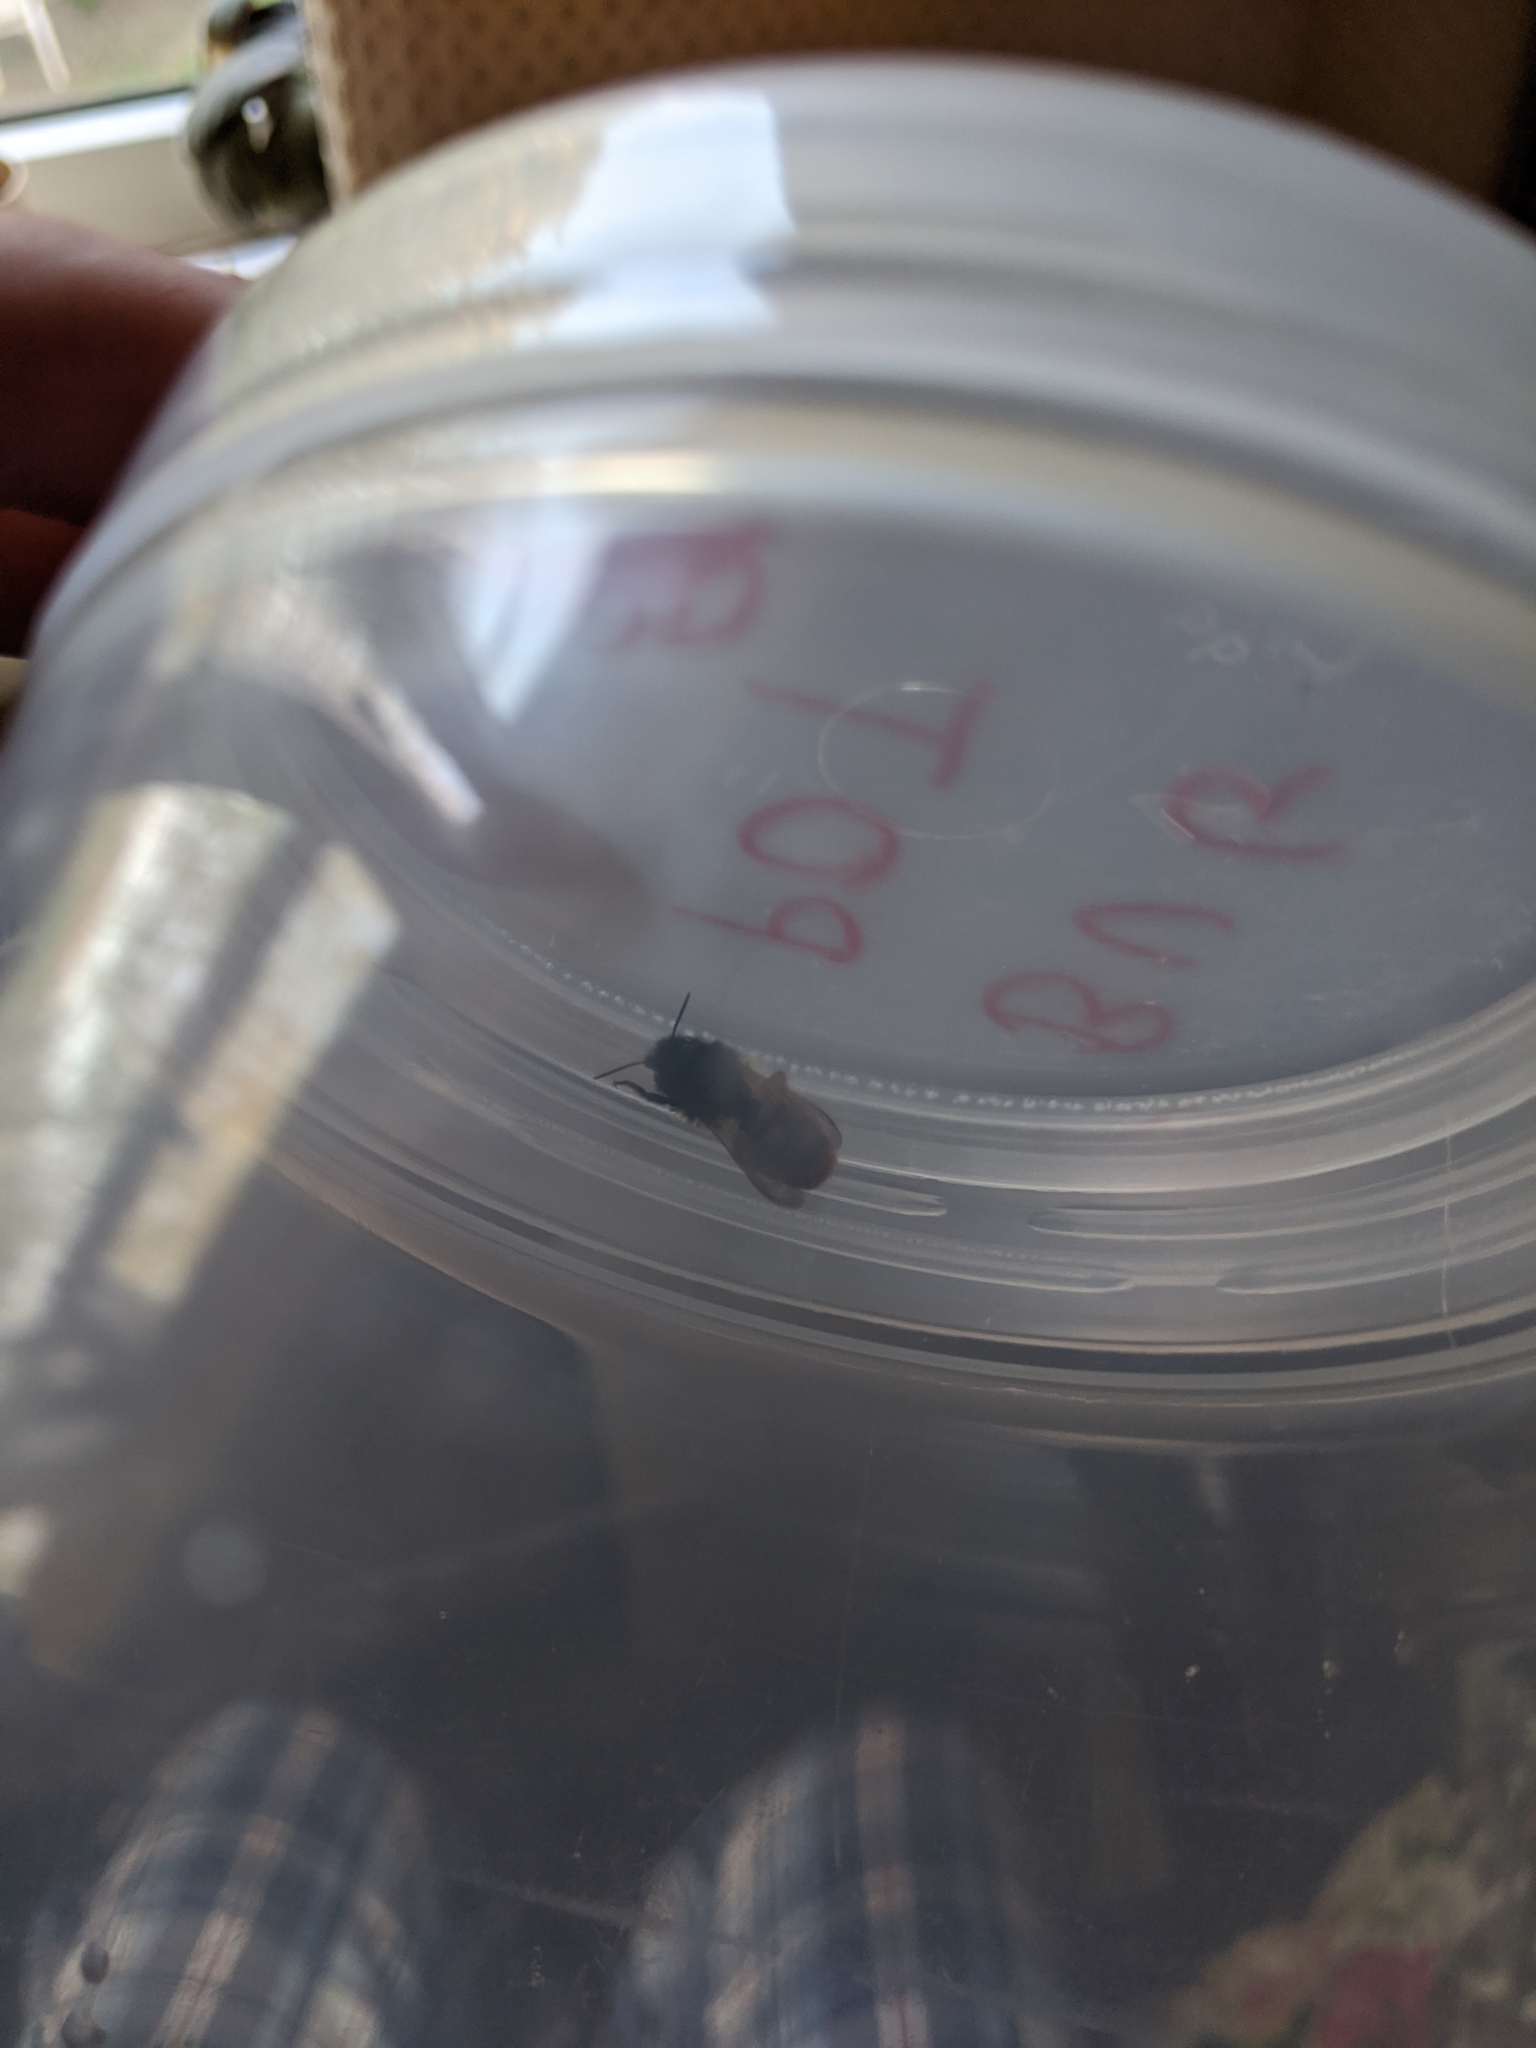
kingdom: Animalia
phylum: Arthropoda
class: Insecta
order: Hymenoptera
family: Megachilidae
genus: Osmia
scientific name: Osmia bicornis
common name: Red mason bee
